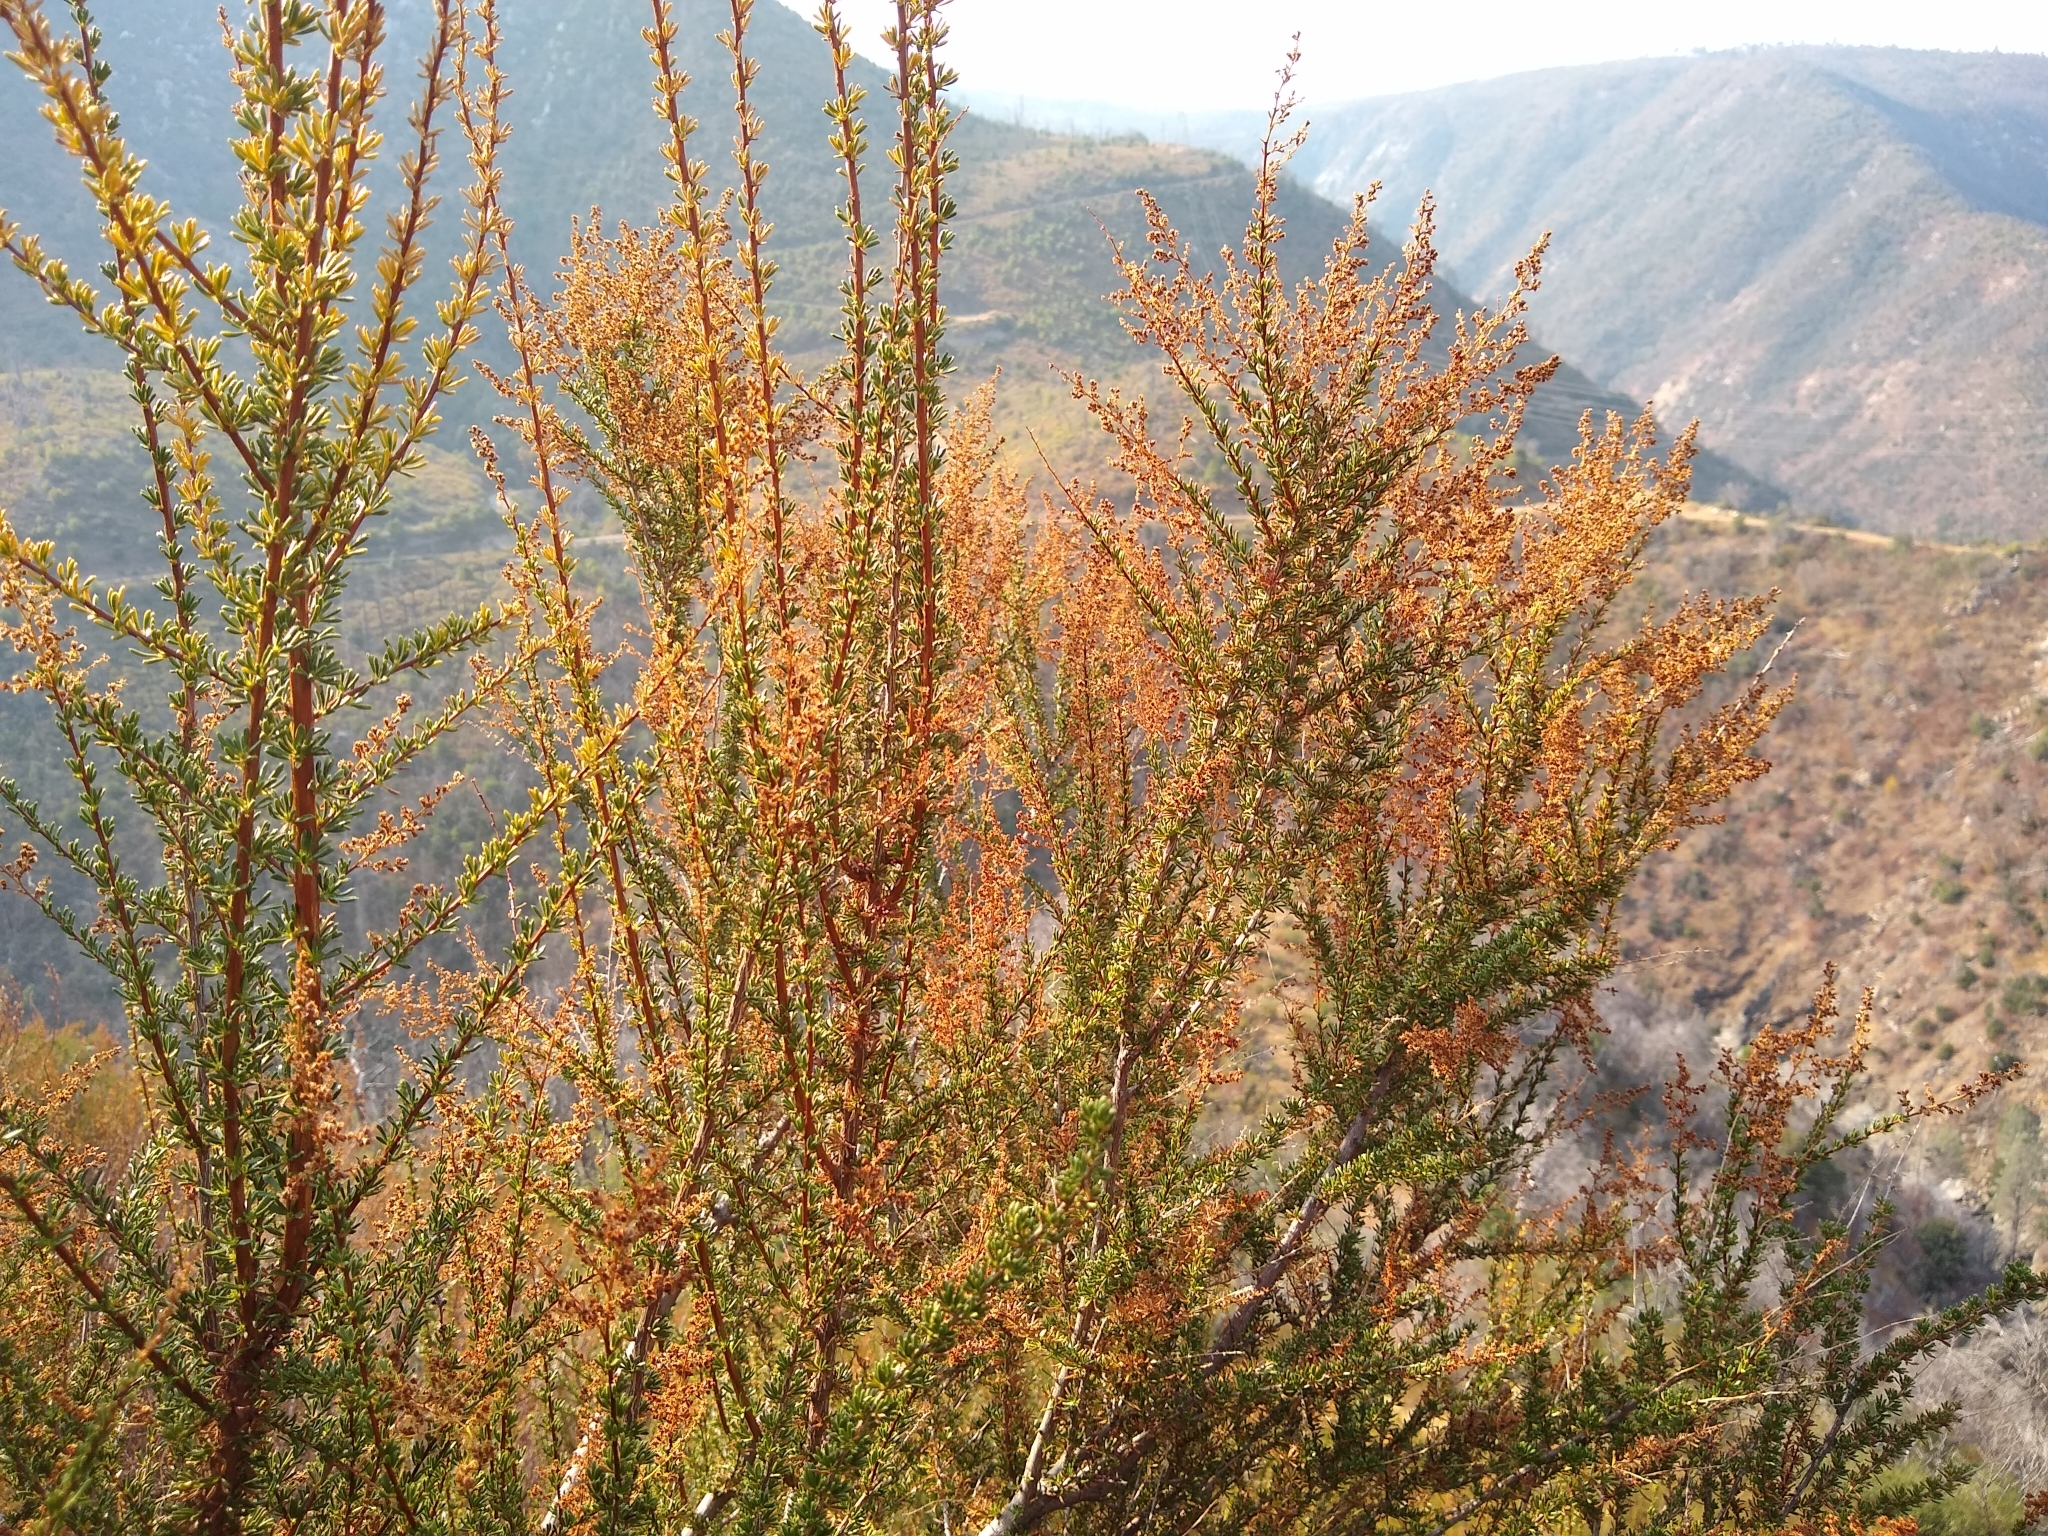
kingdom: Plantae
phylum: Tracheophyta
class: Magnoliopsida
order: Rosales
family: Rosaceae
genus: Adenostoma
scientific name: Adenostoma fasciculatum
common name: Chamise
